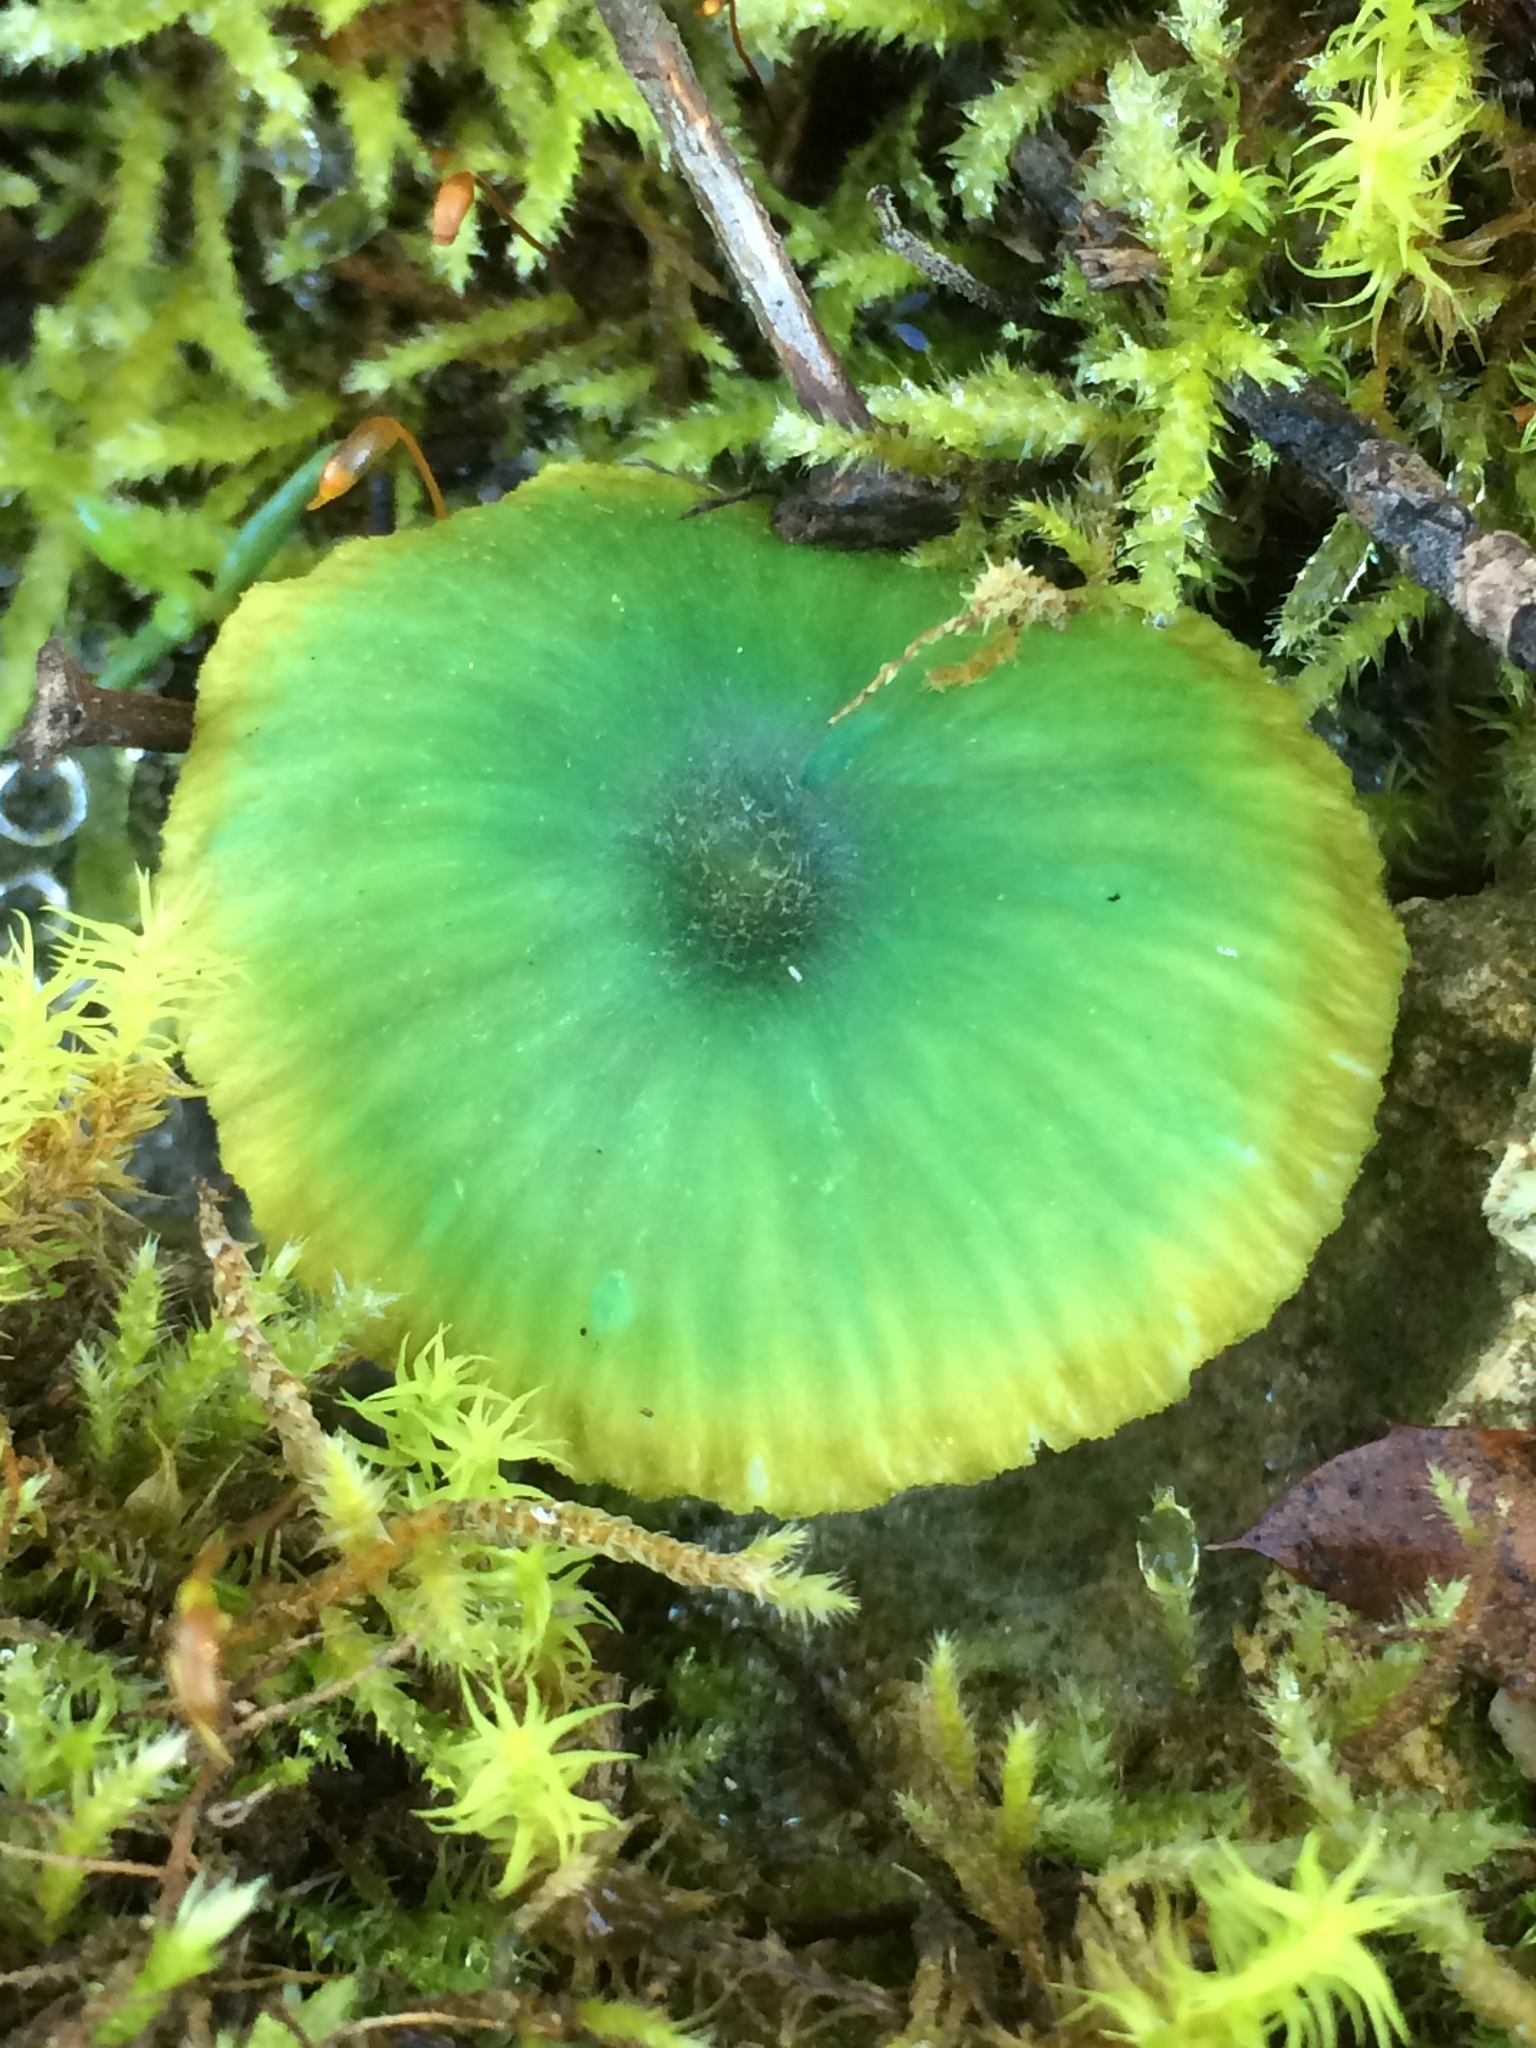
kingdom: Fungi
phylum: Basidiomycota
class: Agaricomycetes
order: Agaricales
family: Entolomataceae
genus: Entoloma
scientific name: Entoloma incanum
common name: Mousepee pinkgill
